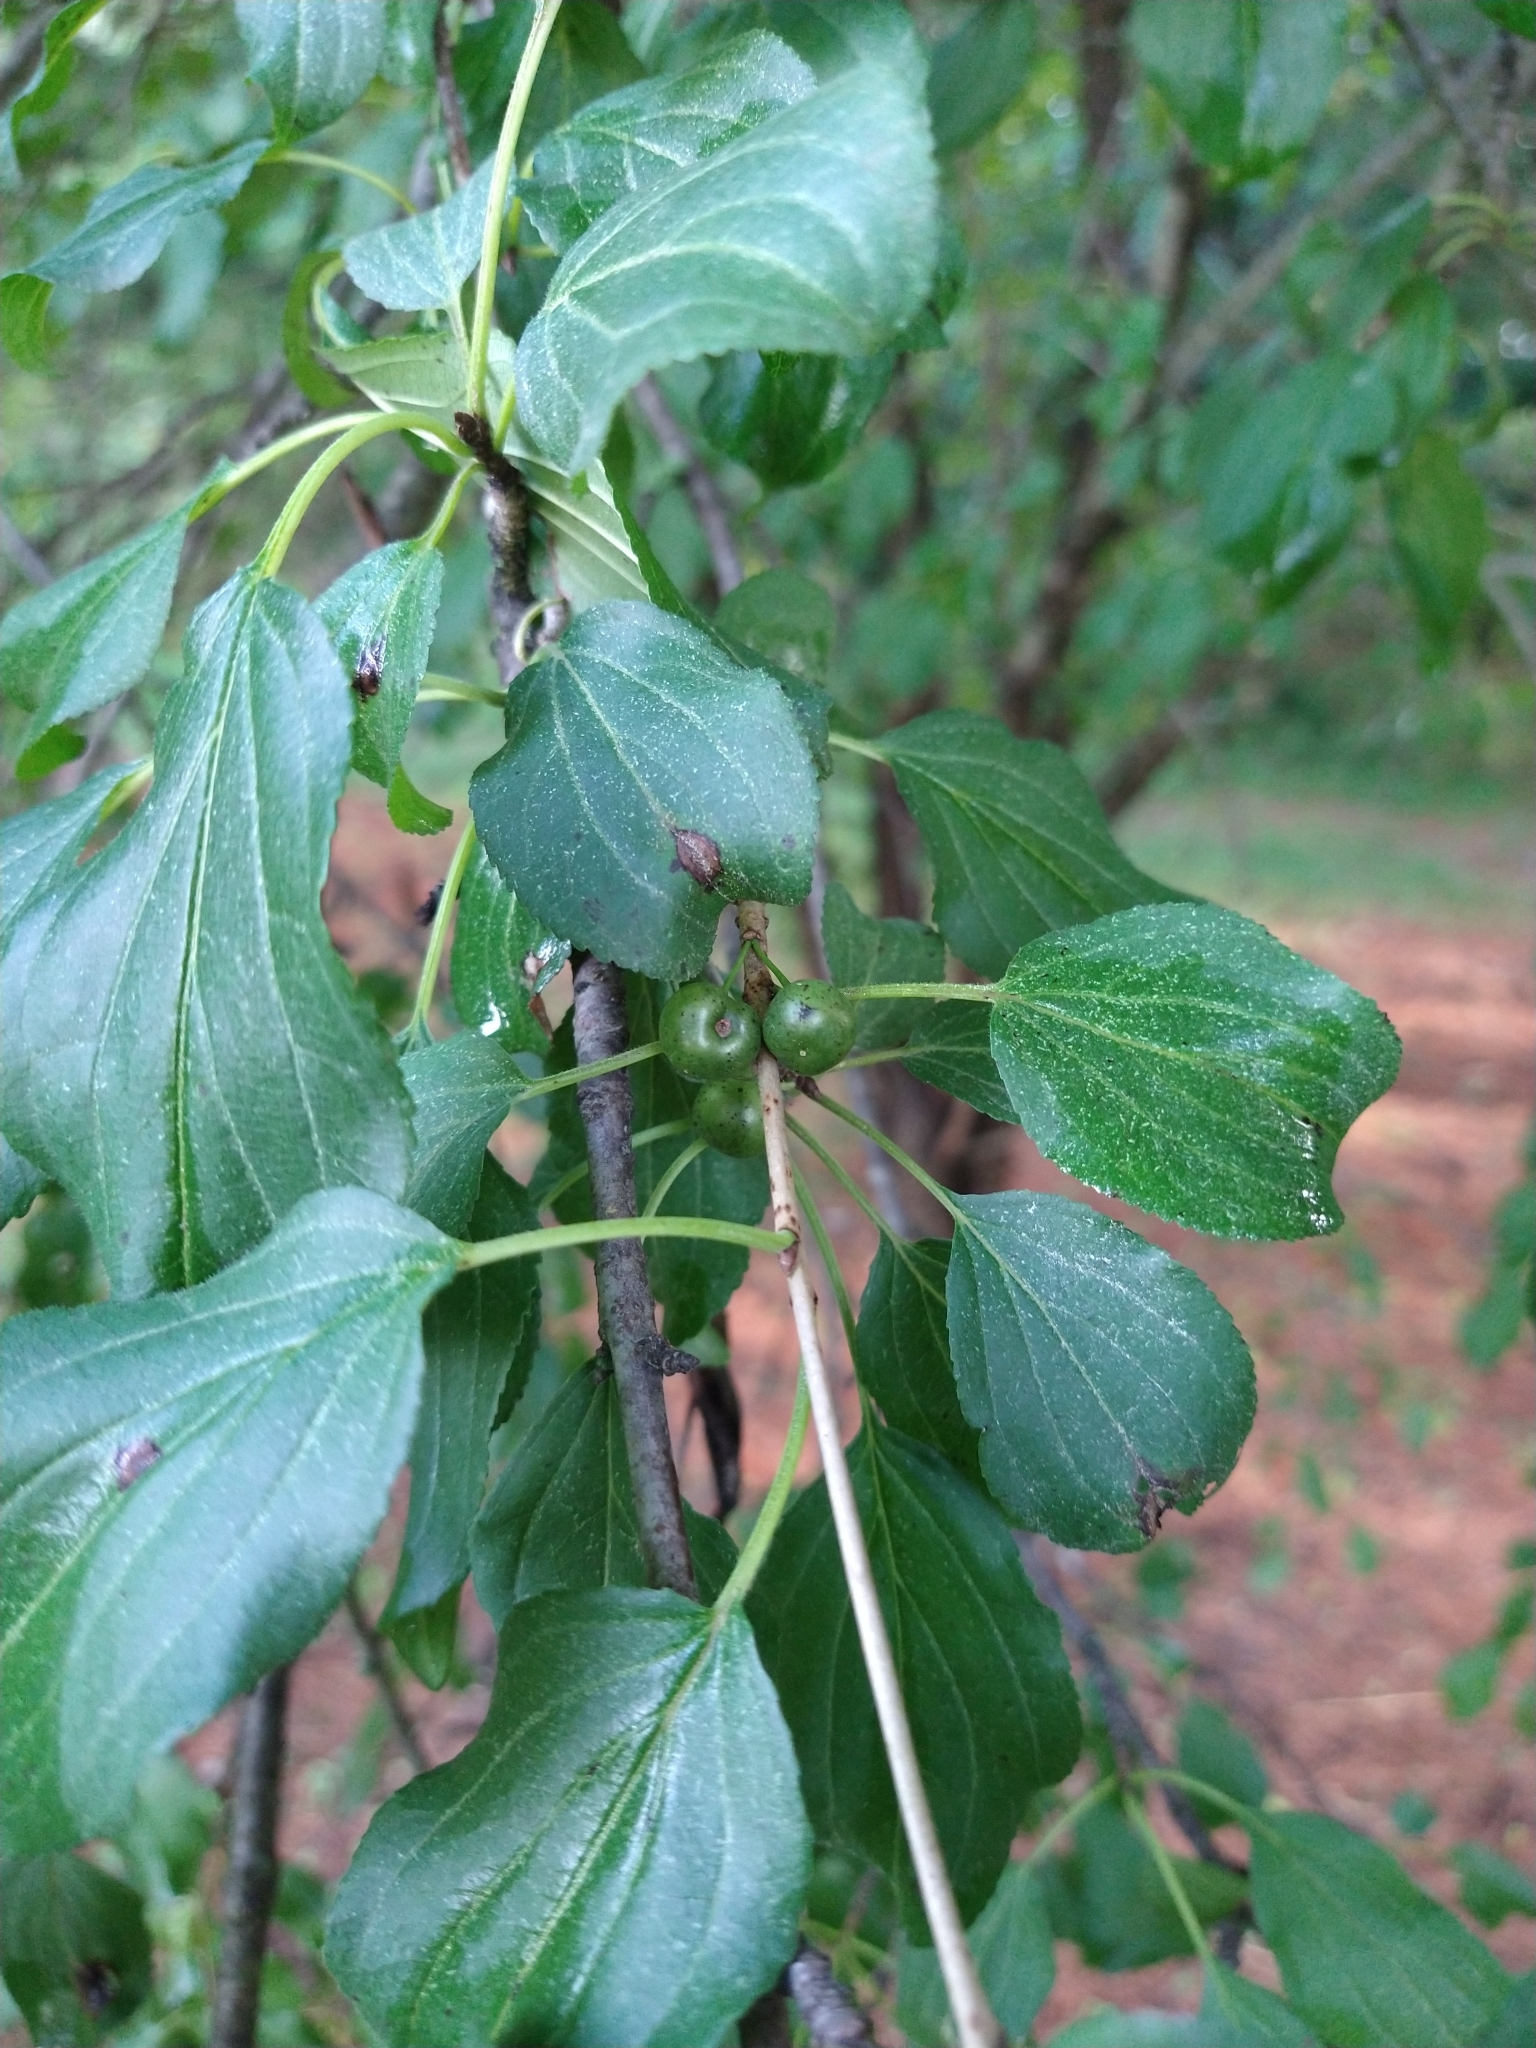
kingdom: Plantae
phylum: Tracheophyta
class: Magnoliopsida
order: Rosales
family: Rhamnaceae
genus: Rhamnus
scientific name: Rhamnus cathartica
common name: Common buckthorn
